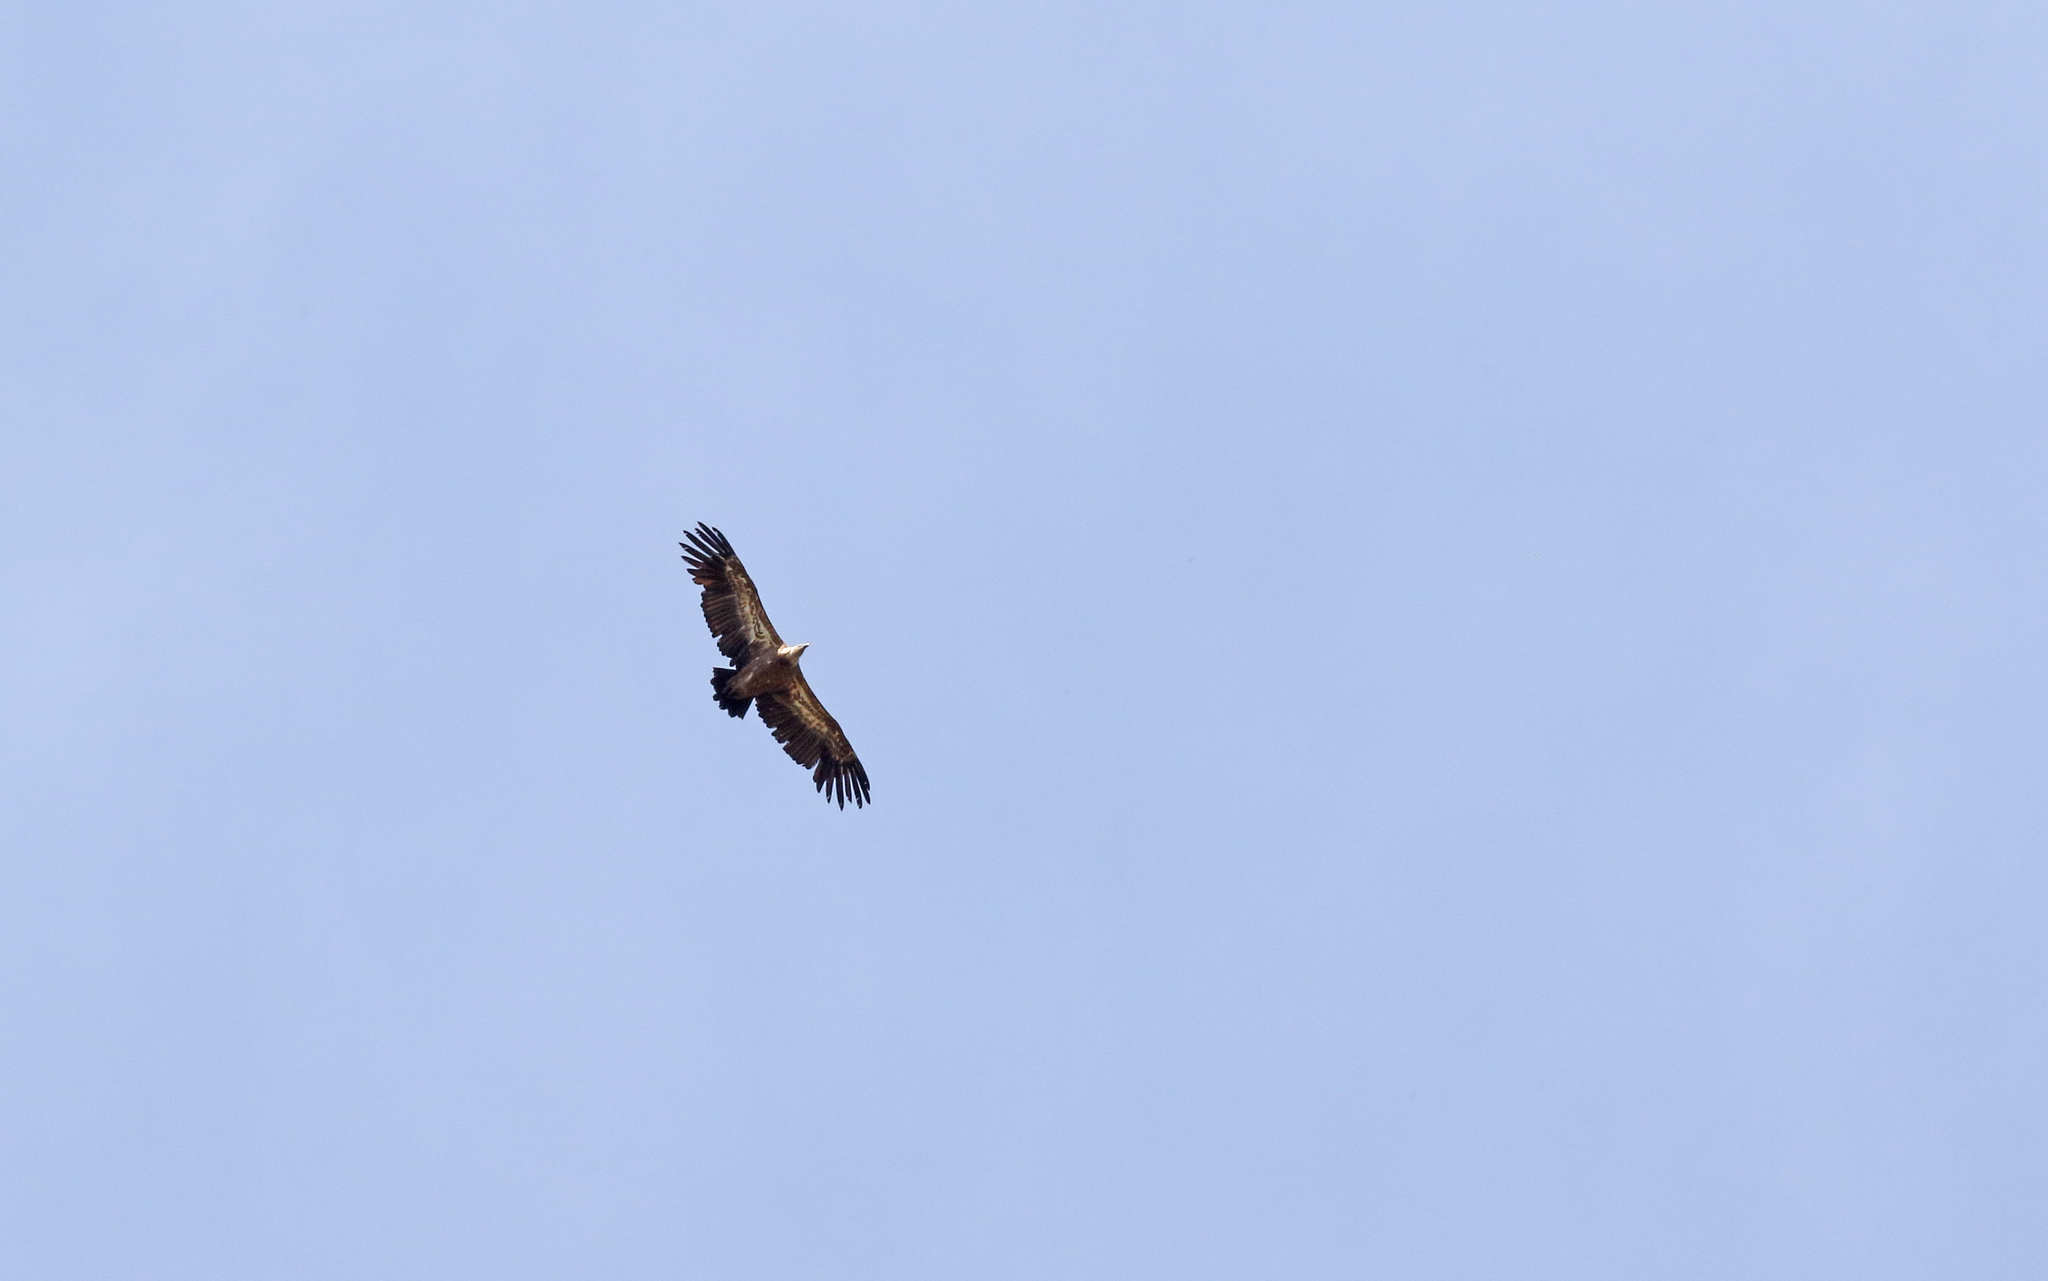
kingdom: Animalia
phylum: Chordata
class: Aves
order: Accipitriformes
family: Accipitridae
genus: Gyps
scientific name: Gyps fulvus
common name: Griffon vulture
